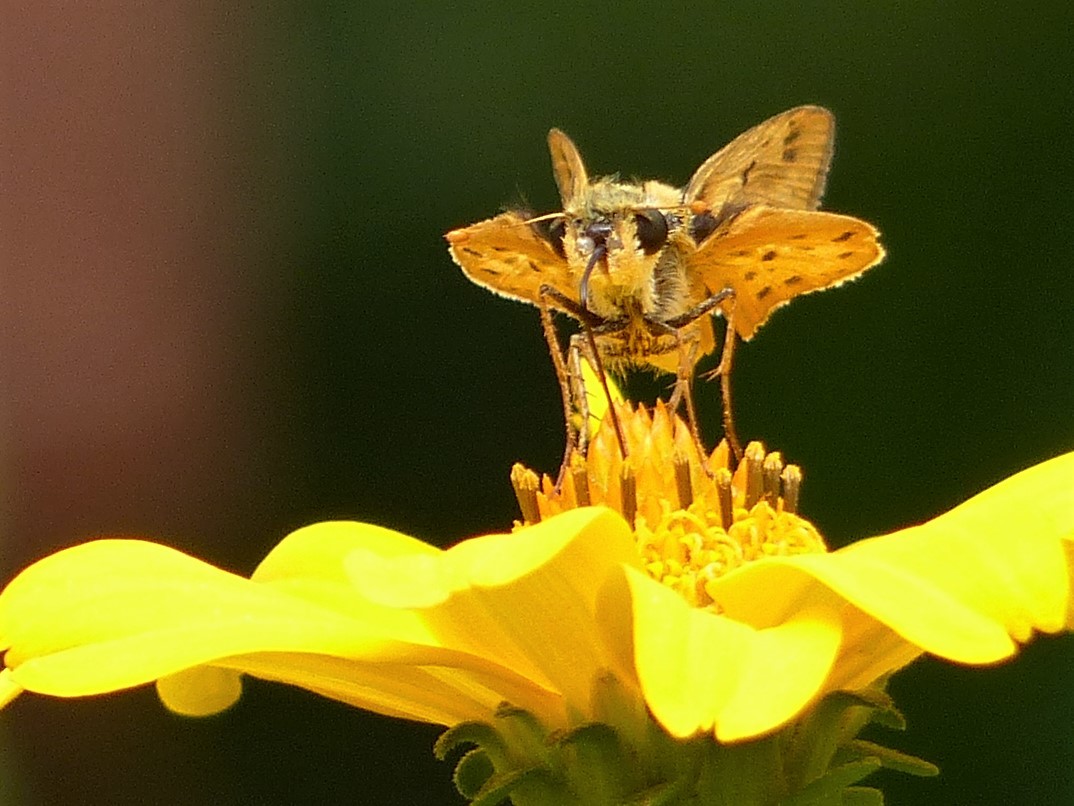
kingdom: Animalia
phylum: Arthropoda
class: Insecta
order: Lepidoptera
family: Hesperiidae
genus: Hylephila
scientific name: Hylephila phyleus
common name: Fiery skipper
